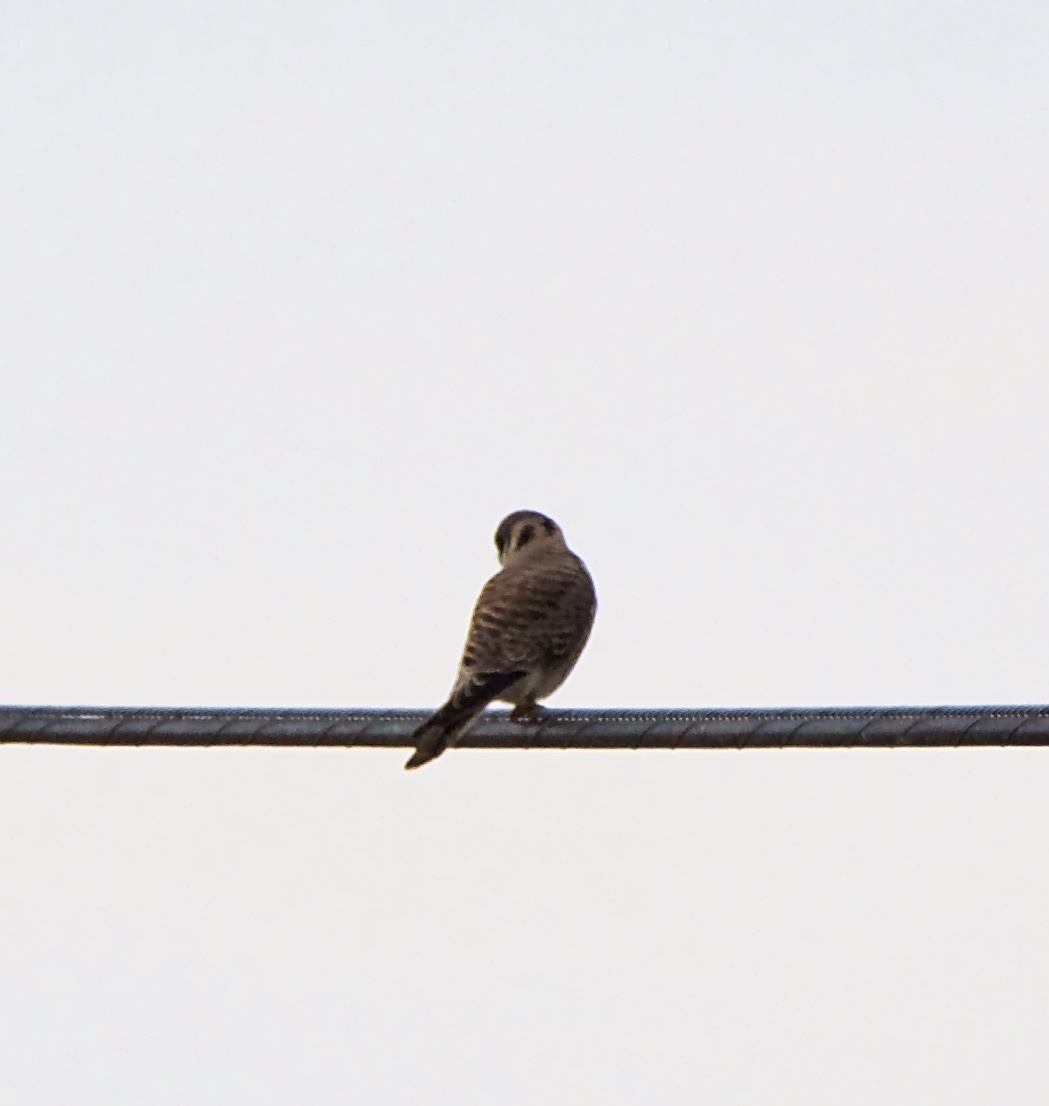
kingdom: Animalia
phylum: Chordata
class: Aves
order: Falconiformes
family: Falconidae
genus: Falco
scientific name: Falco sparverius
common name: American kestrel
